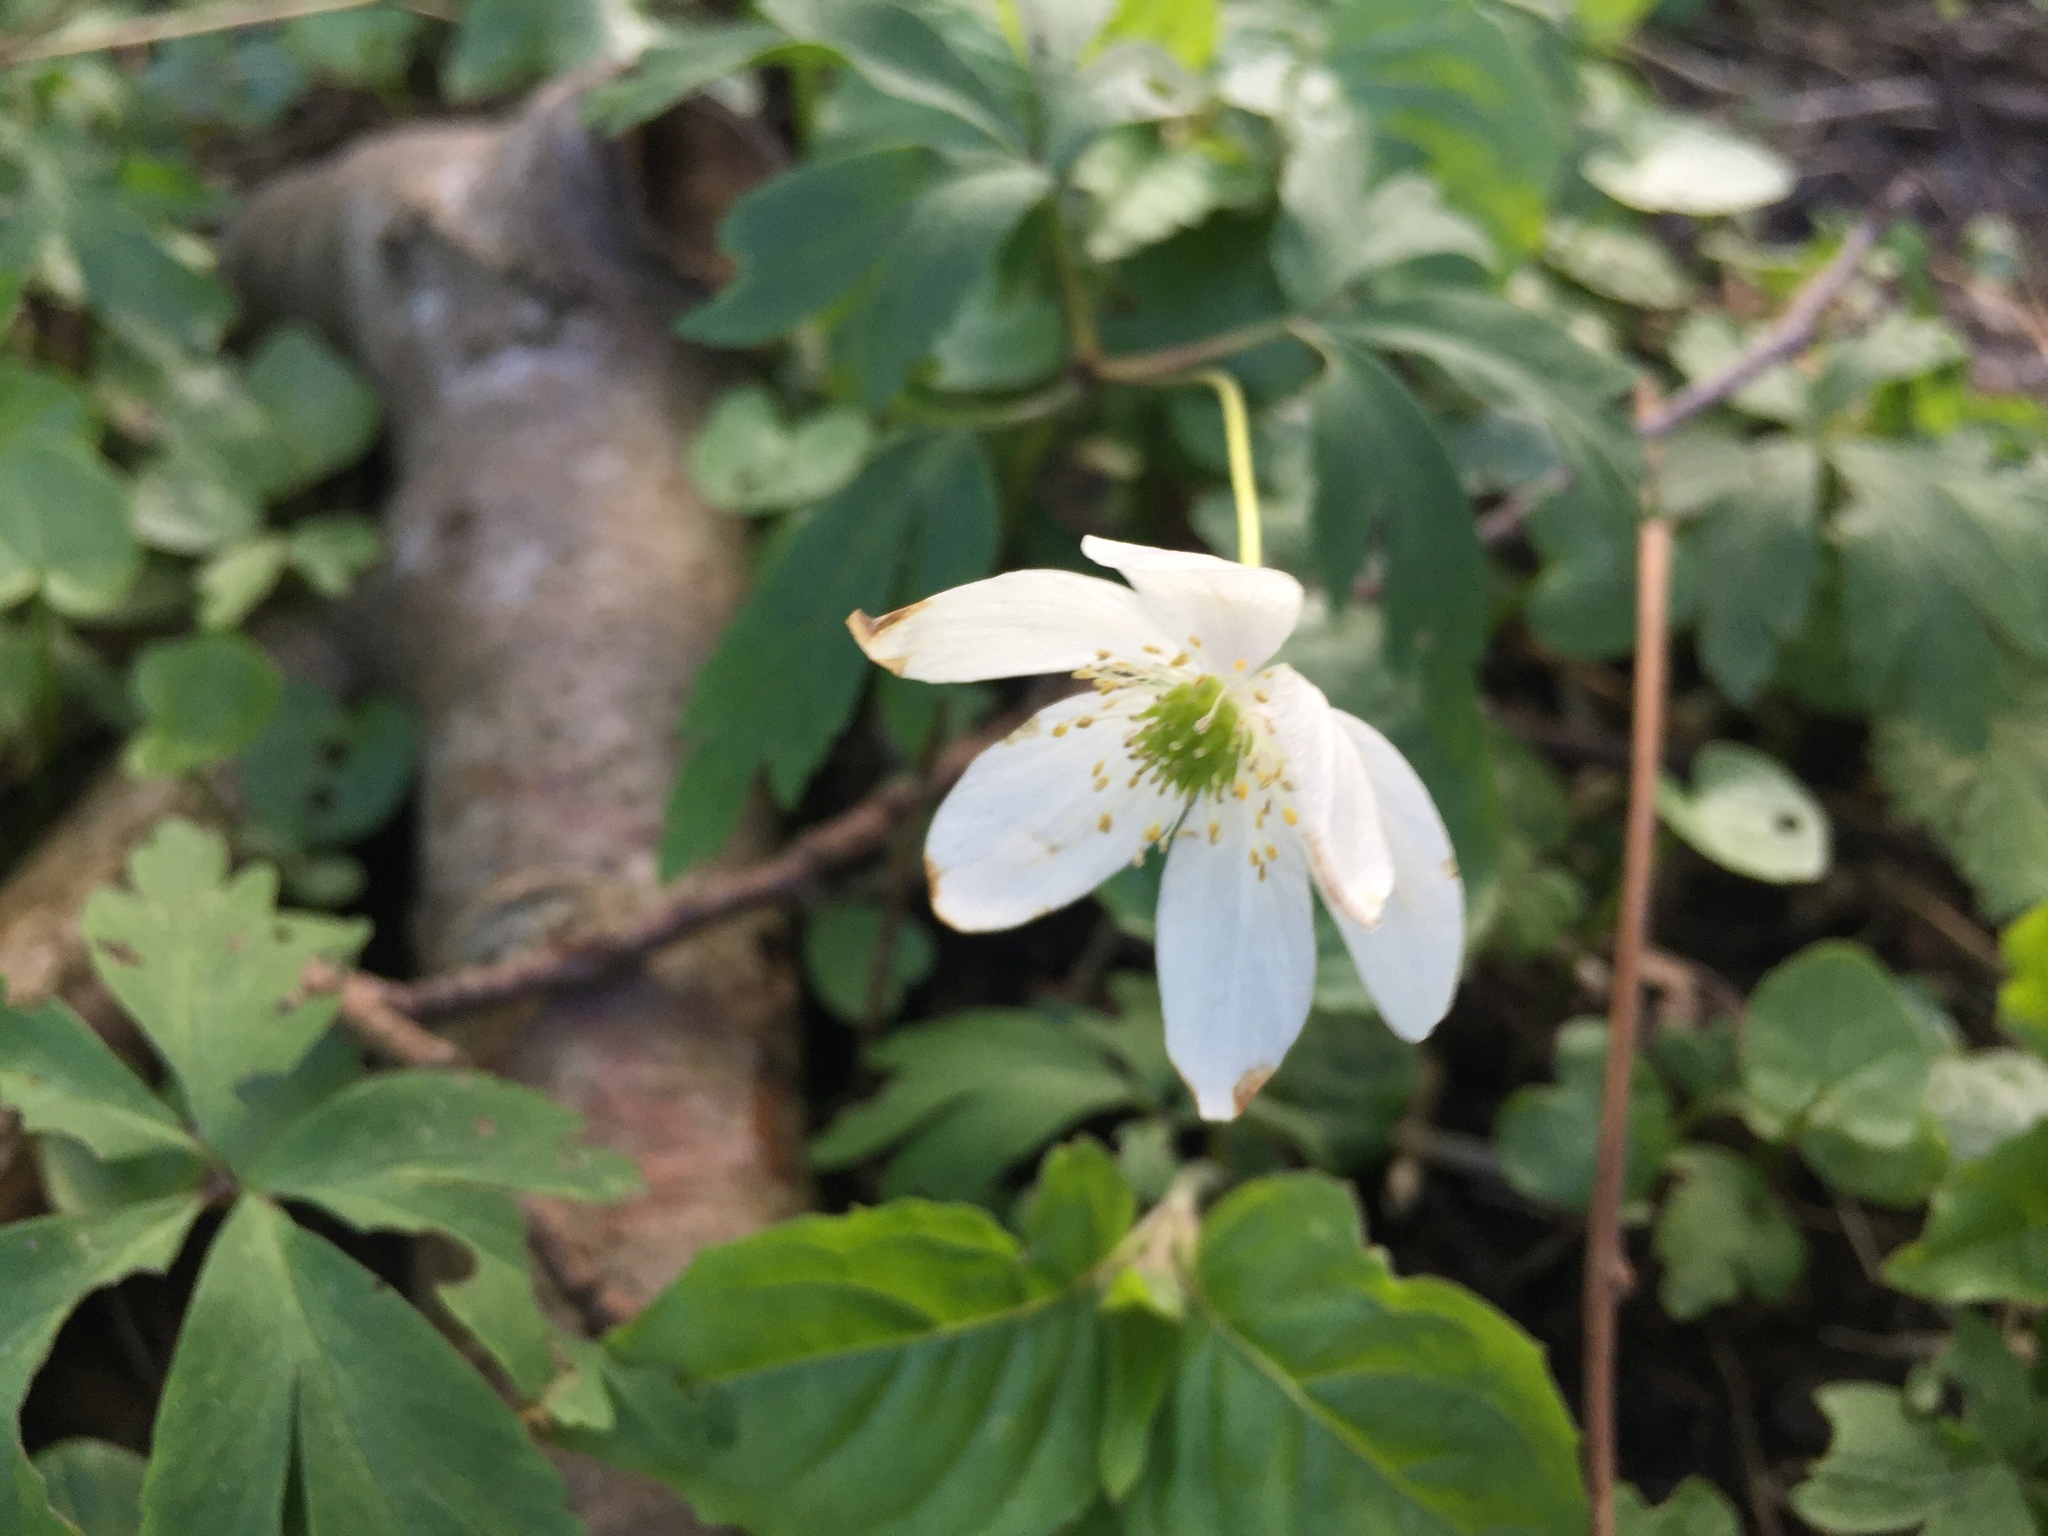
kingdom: Plantae
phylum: Tracheophyta
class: Magnoliopsida
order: Ranunculales
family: Ranunculaceae
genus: Anemone
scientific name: Anemone nemorosa
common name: Wood anemone
